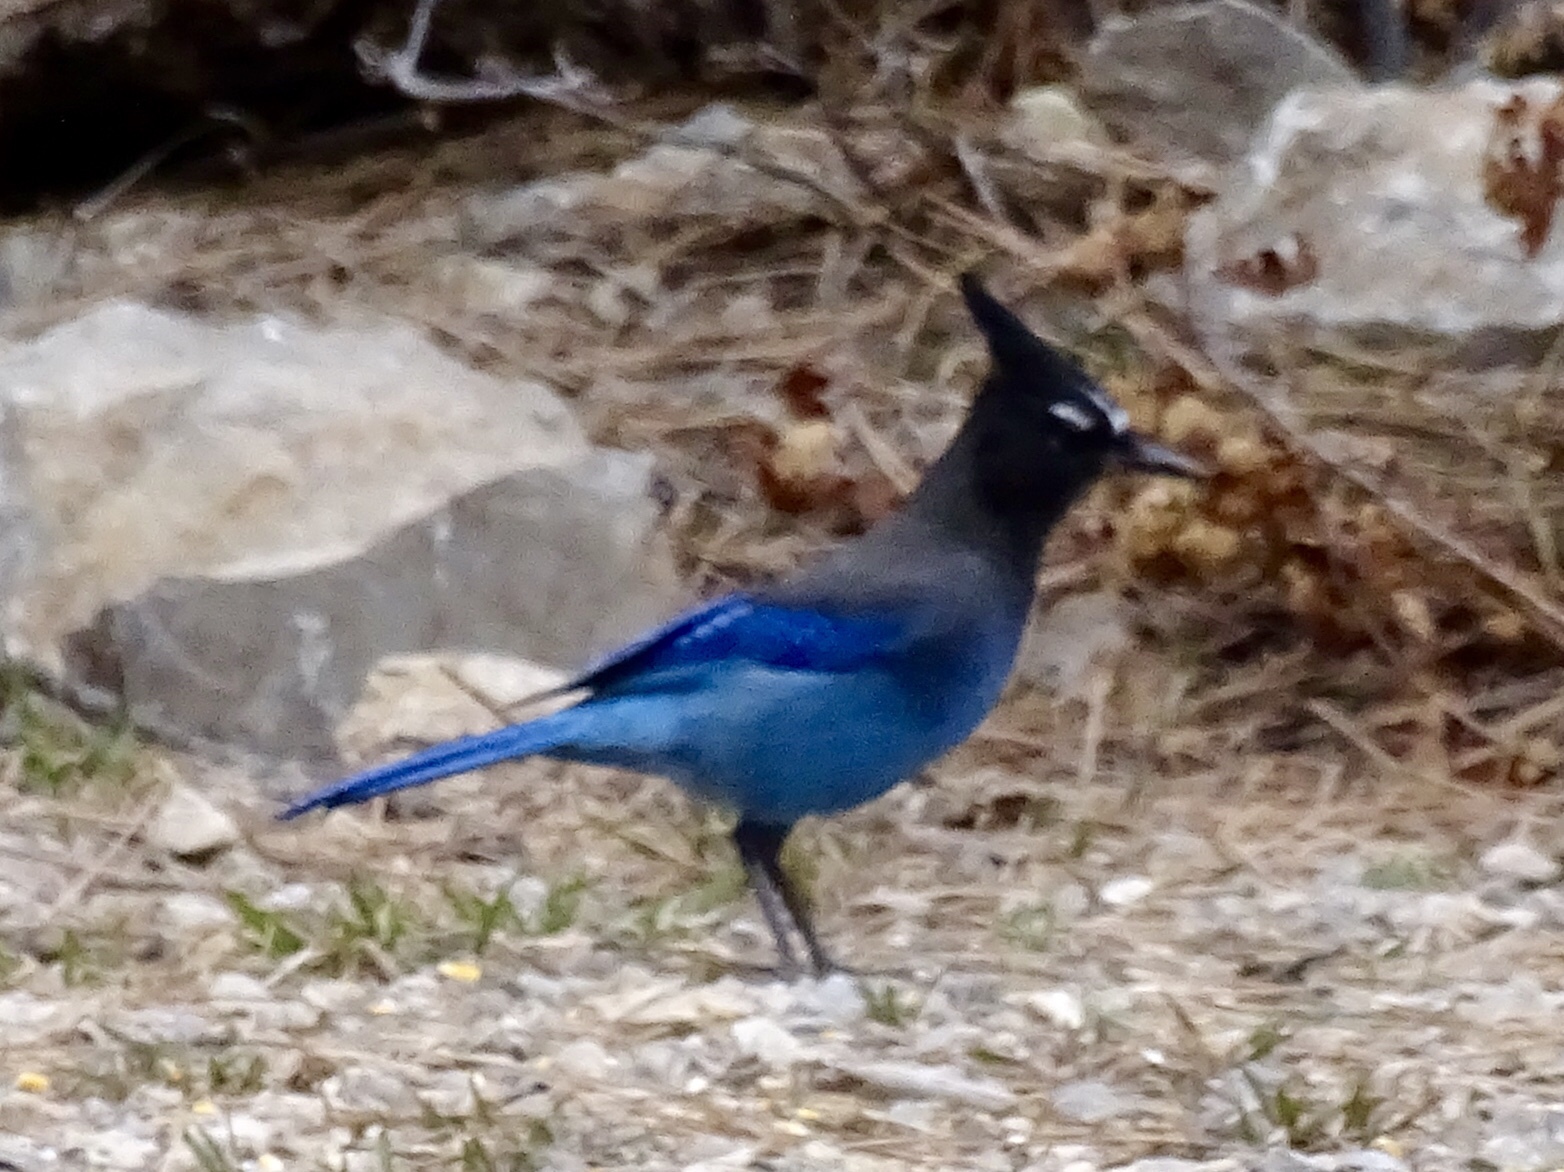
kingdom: Animalia
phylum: Chordata
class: Aves
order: Passeriformes
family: Corvidae
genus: Cyanocitta
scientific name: Cyanocitta stelleri
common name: Steller's jay
